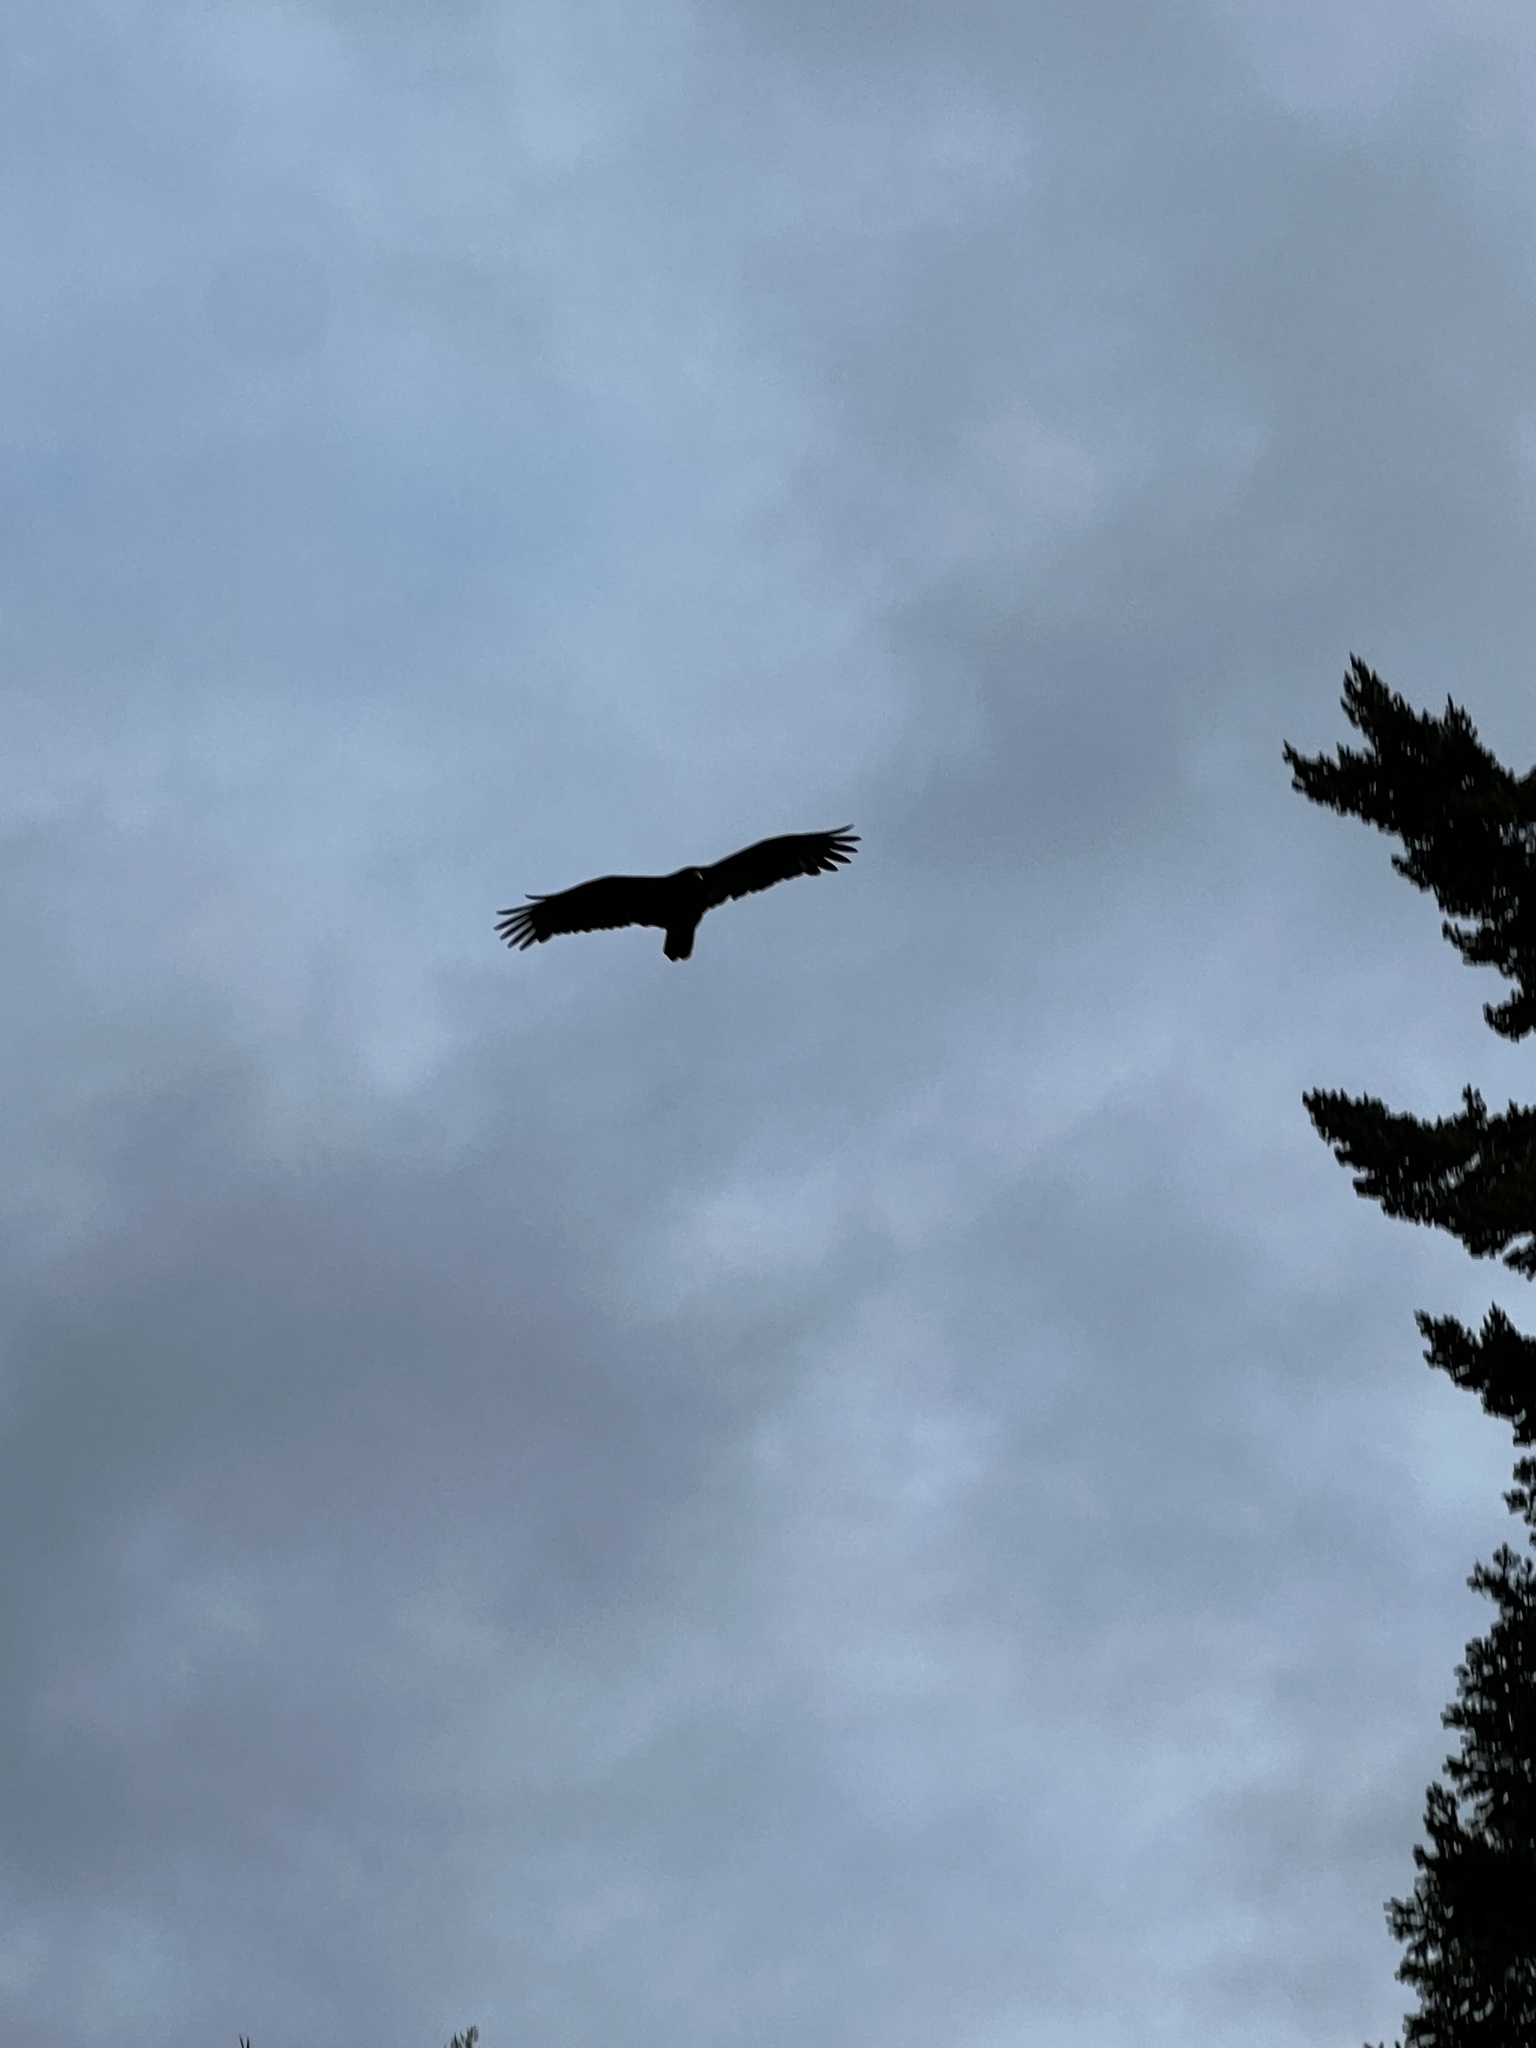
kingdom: Animalia
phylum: Chordata
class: Aves
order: Accipitriformes
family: Cathartidae
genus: Cathartes
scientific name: Cathartes aura
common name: Turkey vulture
